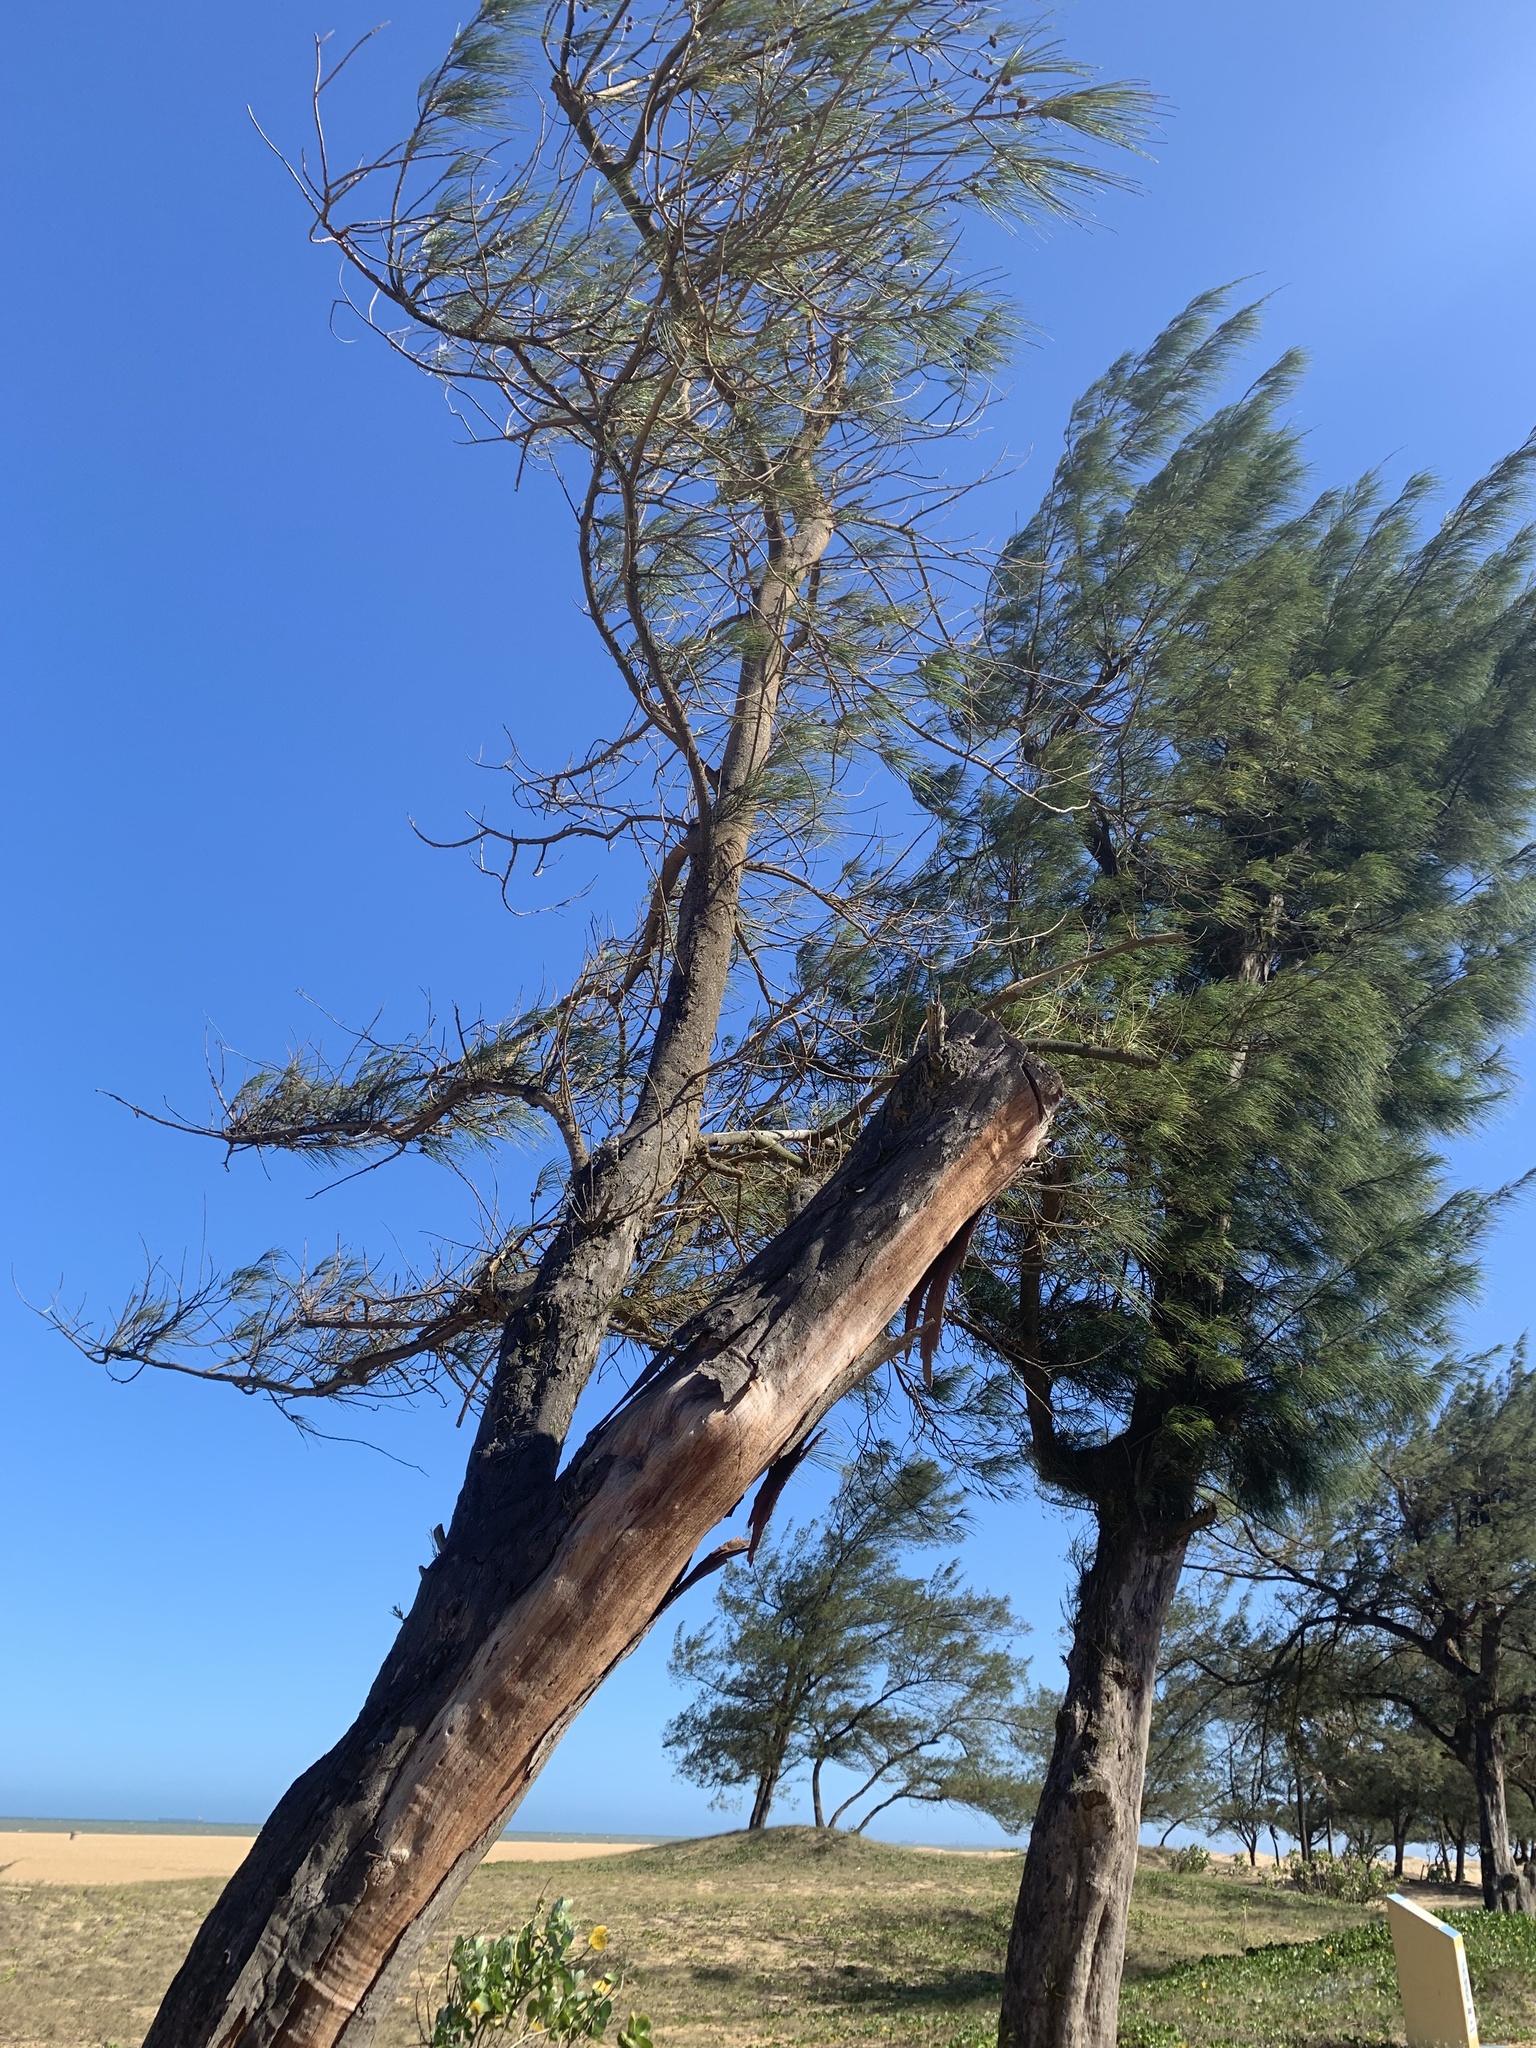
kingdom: Plantae
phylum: Tracheophyta
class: Magnoliopsida
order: Fagales
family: Casuarinaceae
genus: Casuarina
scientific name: Casuarina equisetifolia
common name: Beach sheoak
